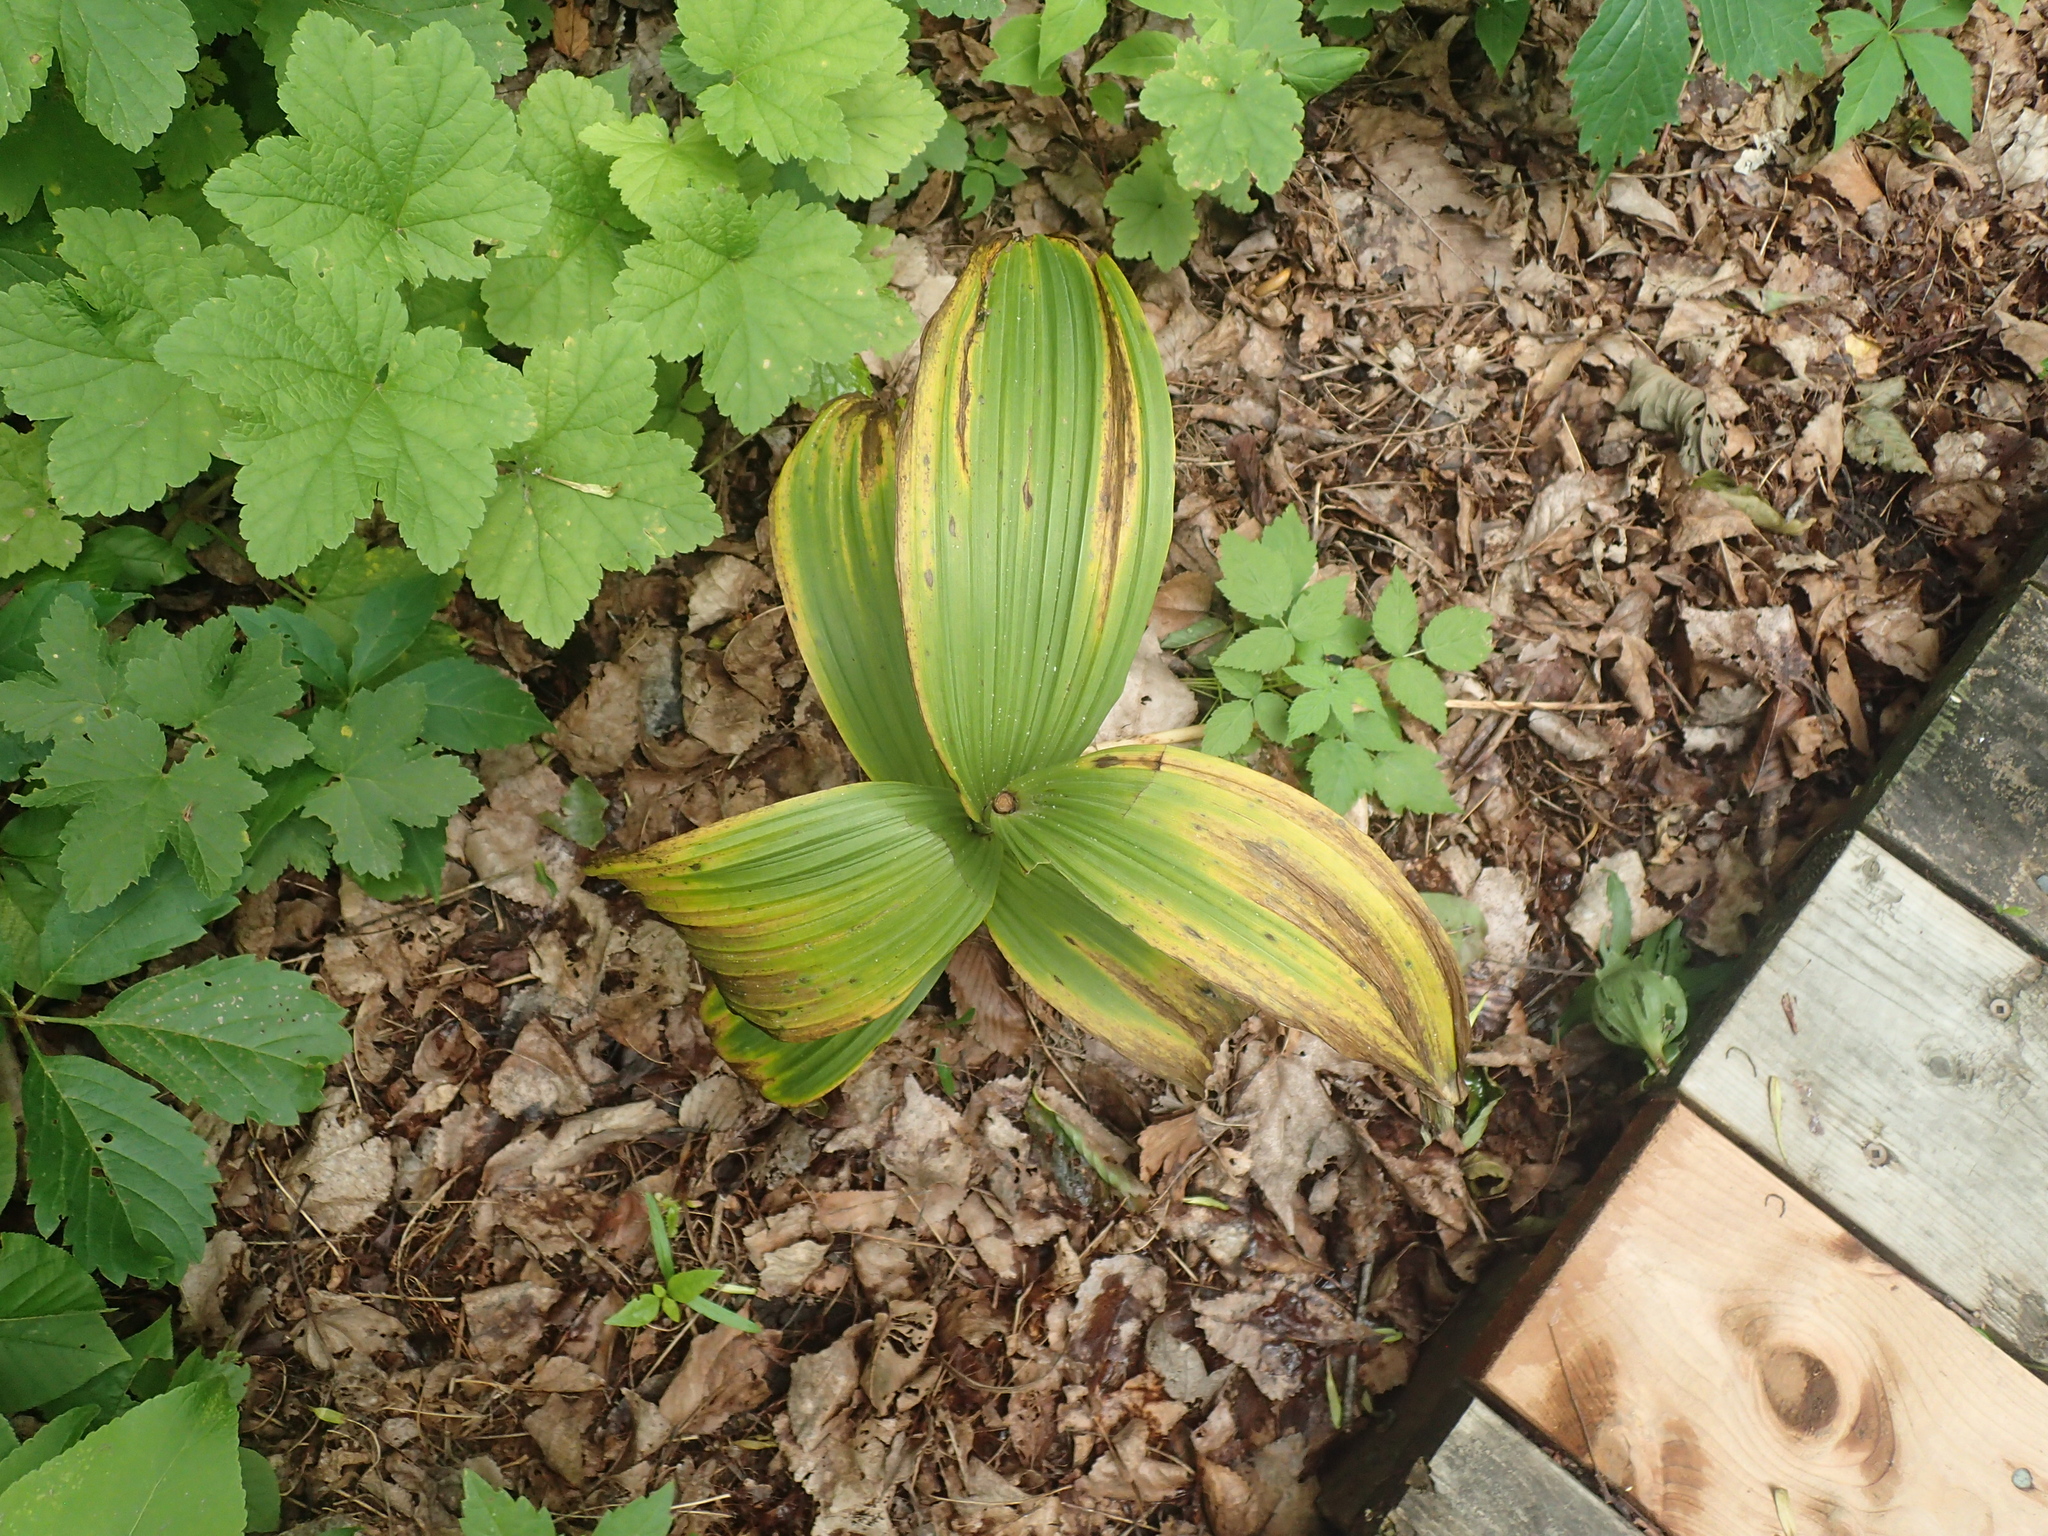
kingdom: Plantae
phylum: Tracheophyta
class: Liliopsida
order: Liliales
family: Melanthiaceae
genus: Veratrum
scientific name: Veratrum viride
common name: American false hellebore
